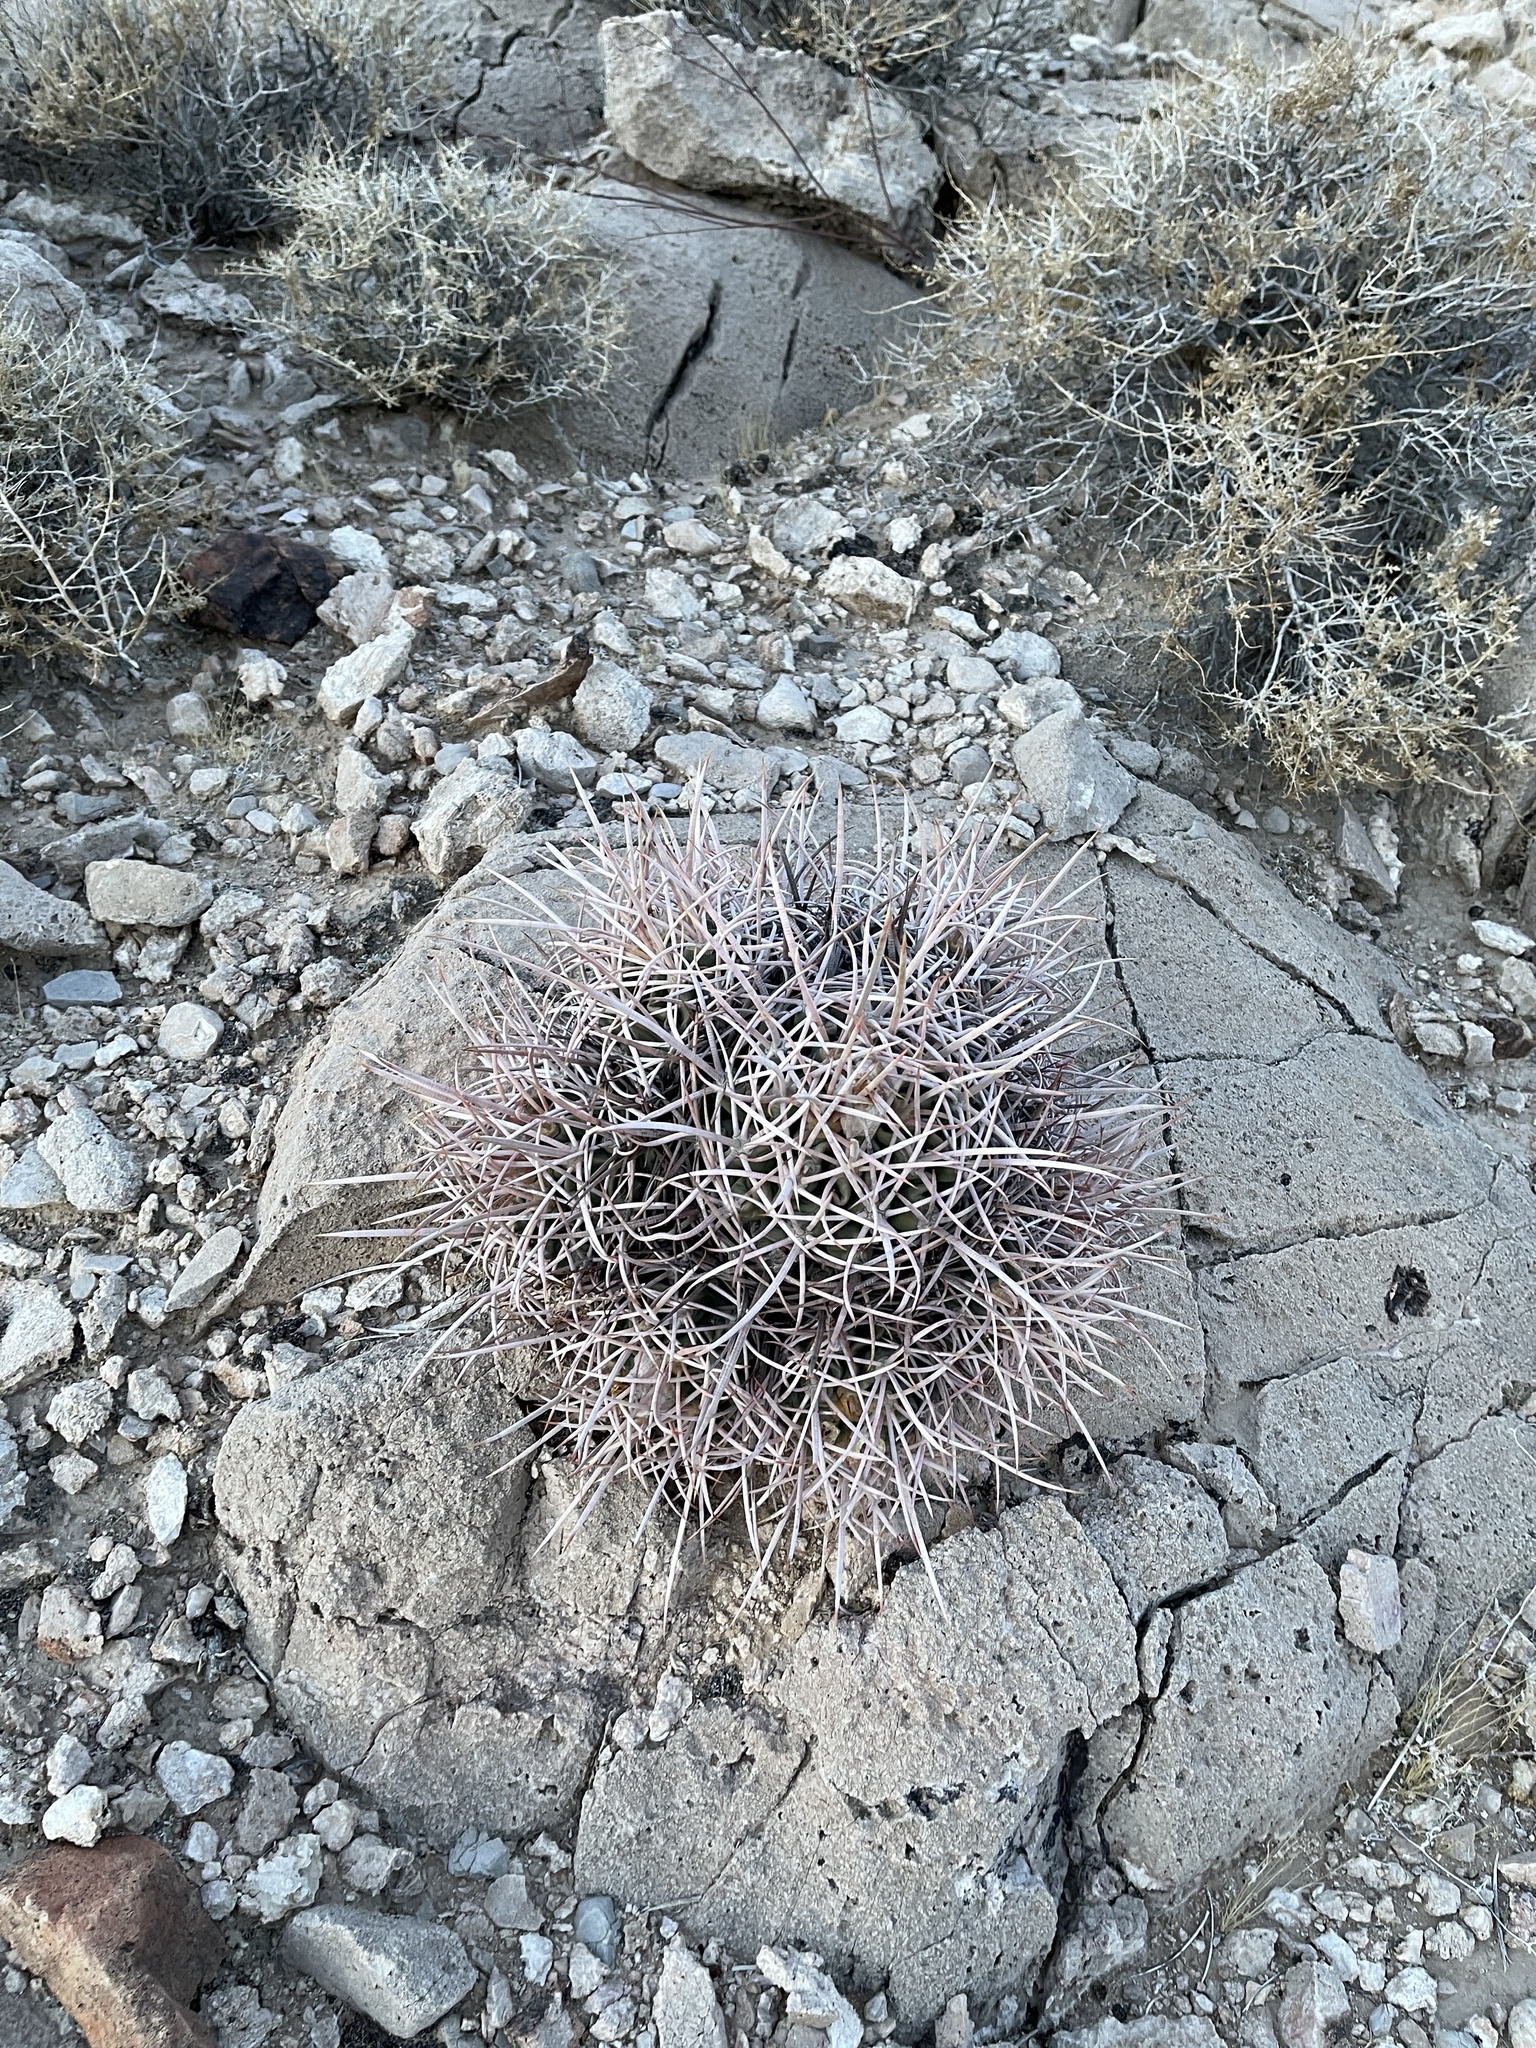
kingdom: Plantae
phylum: Tracheophyta
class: Magnoliopsida
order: Caryophyllales
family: Cactaceae
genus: Echinocactus
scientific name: Echinocactus polycephalus
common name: Cottontop cactus
